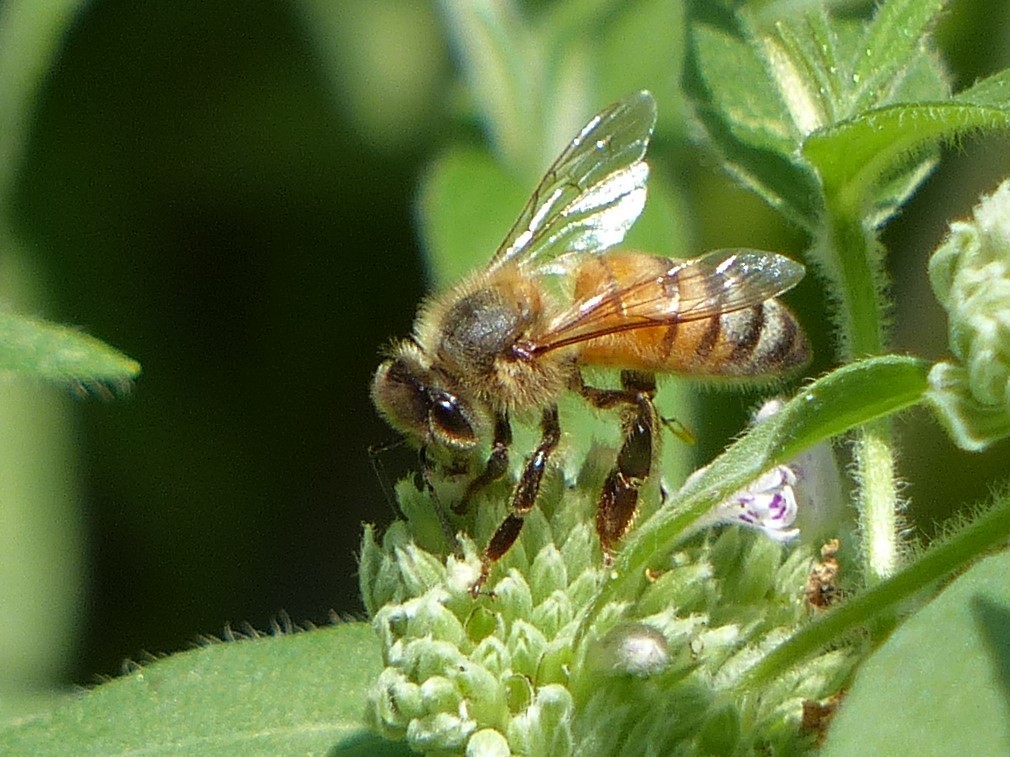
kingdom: Animalia
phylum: Arthropoda
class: Insecta
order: Hymenoptera
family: Apidae
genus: Apis
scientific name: Apis mellifera
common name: Honey bee
